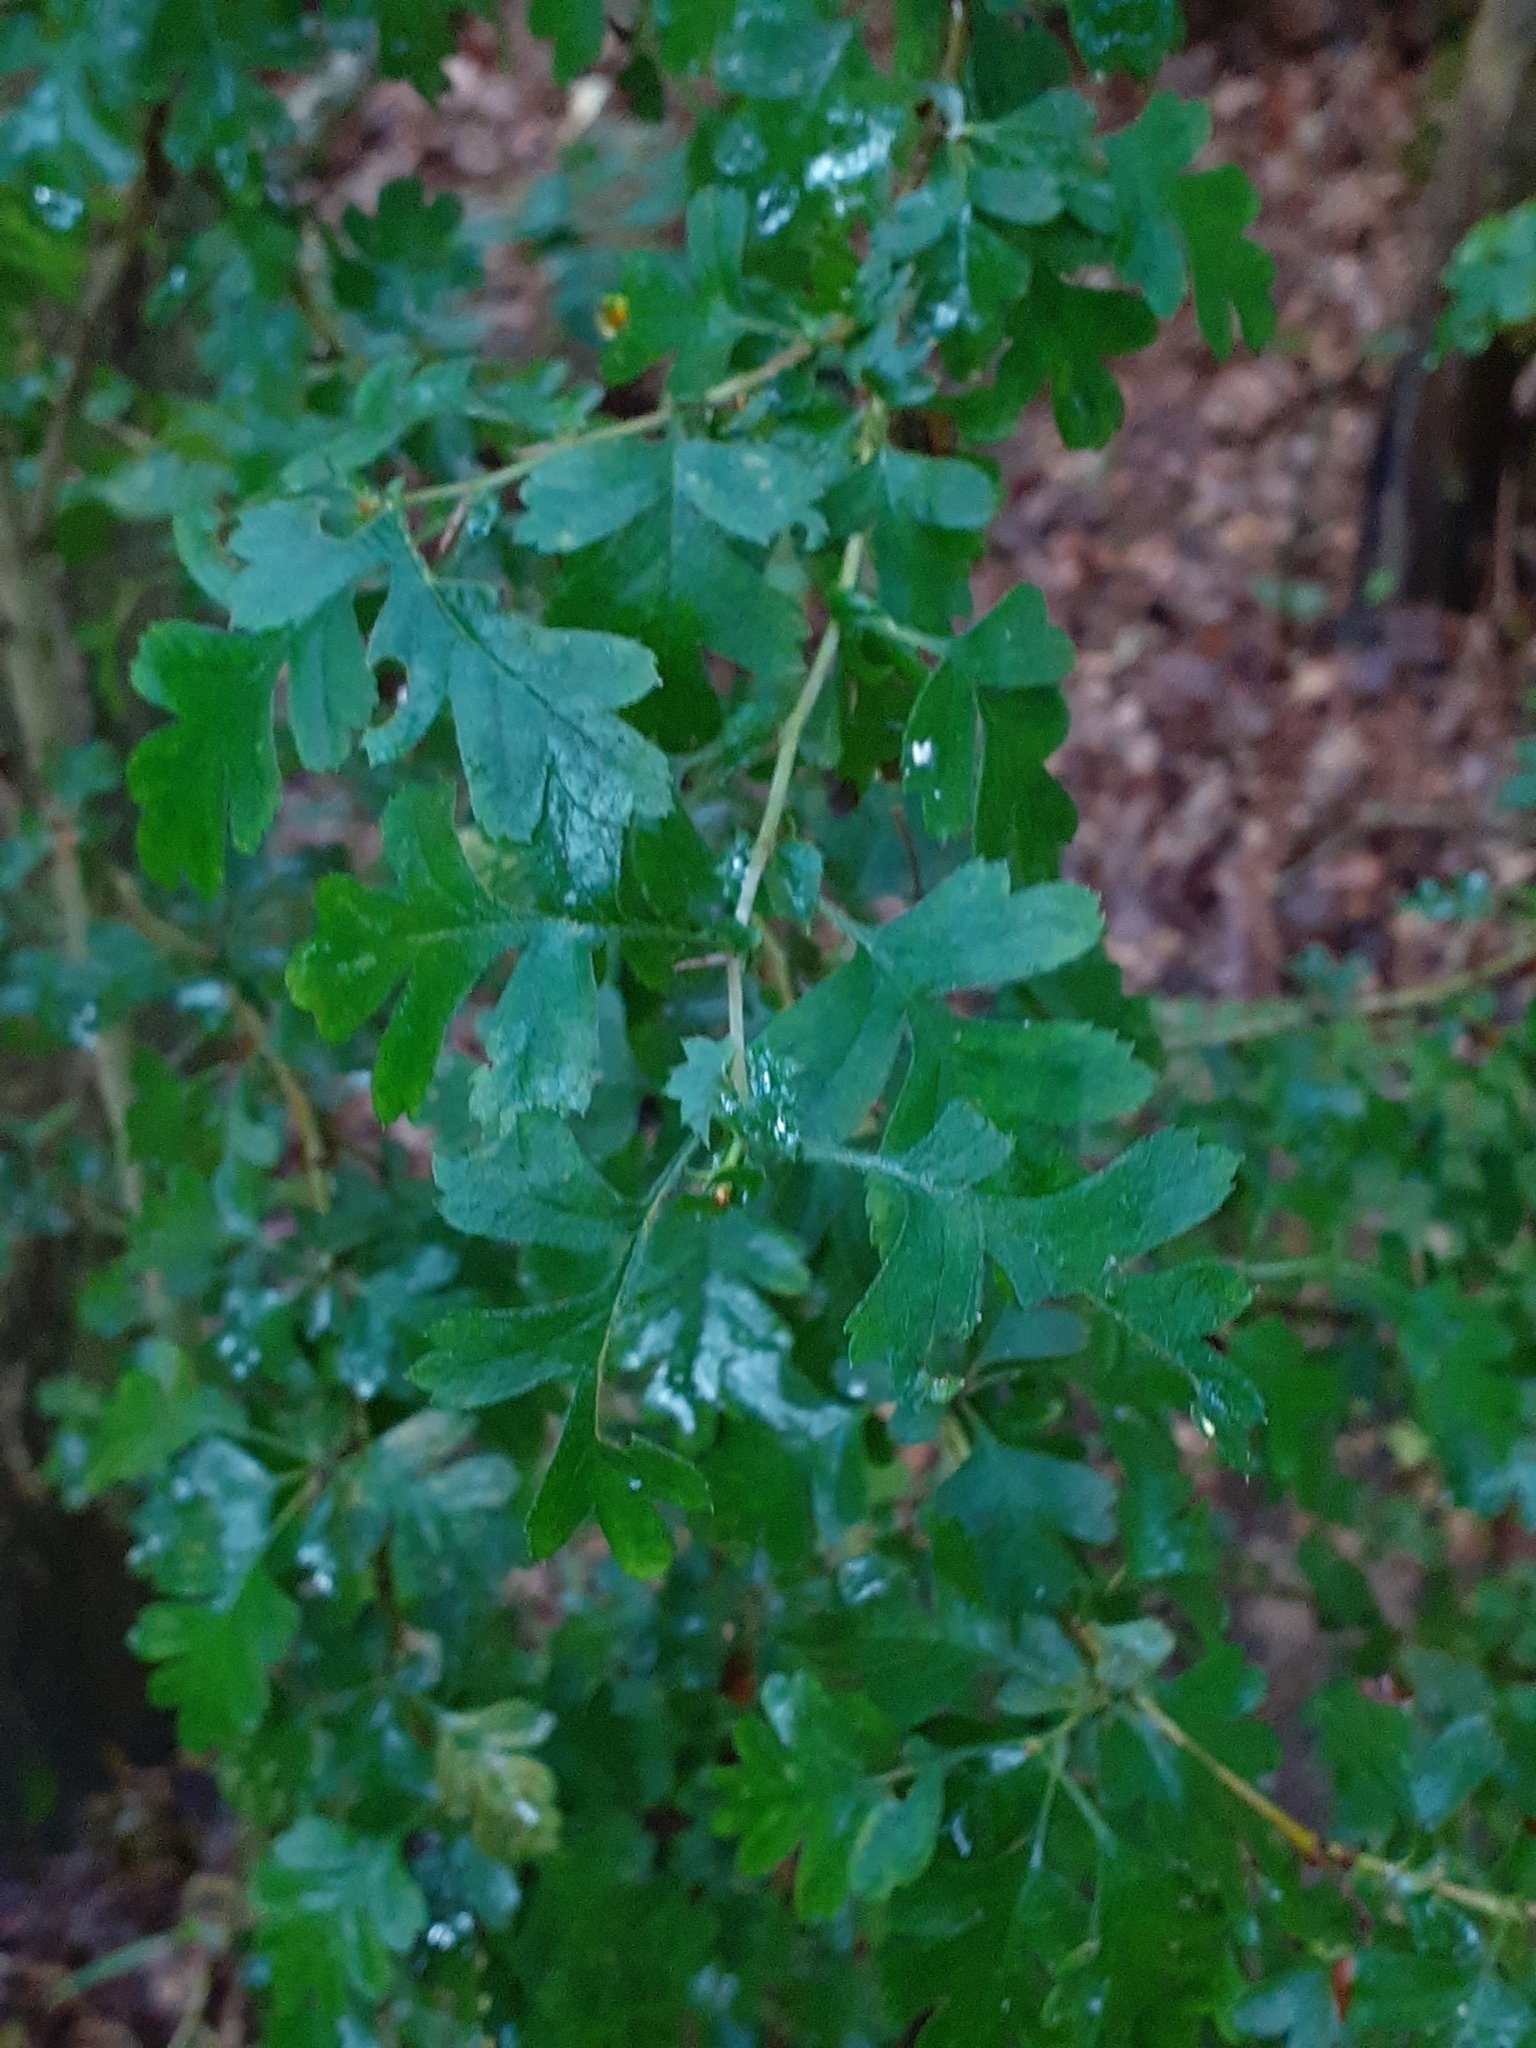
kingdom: Plantae
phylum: Tracheophyta
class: Magnoliopsida
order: Rosales
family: Rosaceae
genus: Crataegus
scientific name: Crataegus monogyna
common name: Hawthorn
